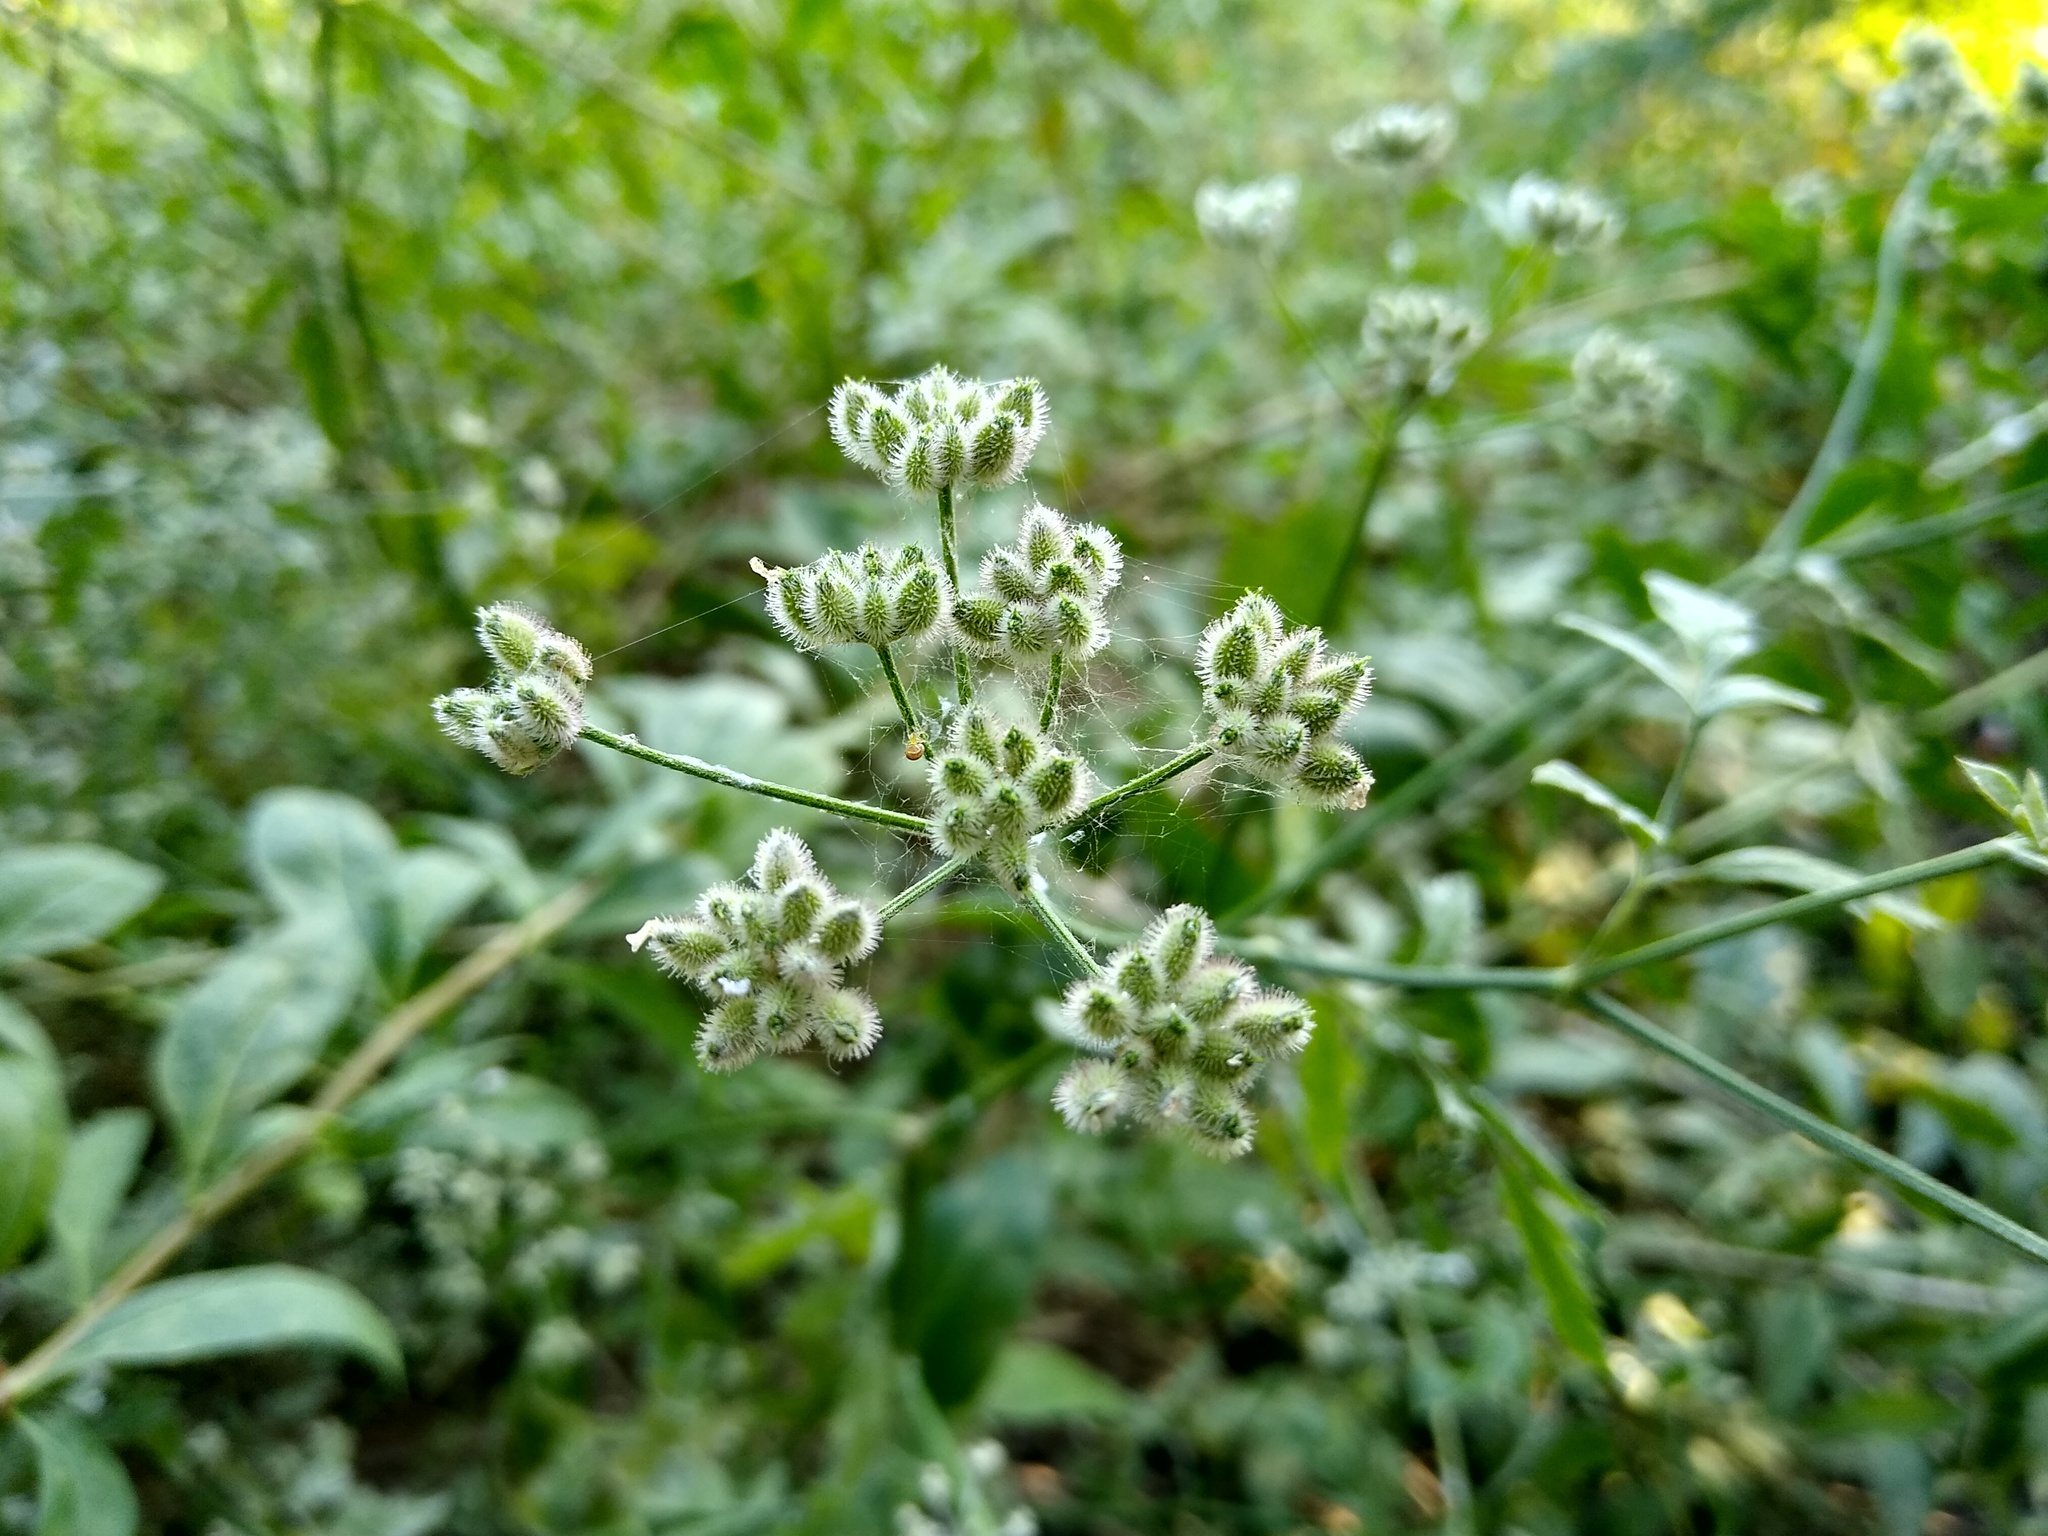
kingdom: Plantae
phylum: Tracheophyta
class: Magnoliopsida
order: Apiales
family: Apiaceae
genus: Torilis
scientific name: Torilis arvensis
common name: Spreading hedge-parsley
